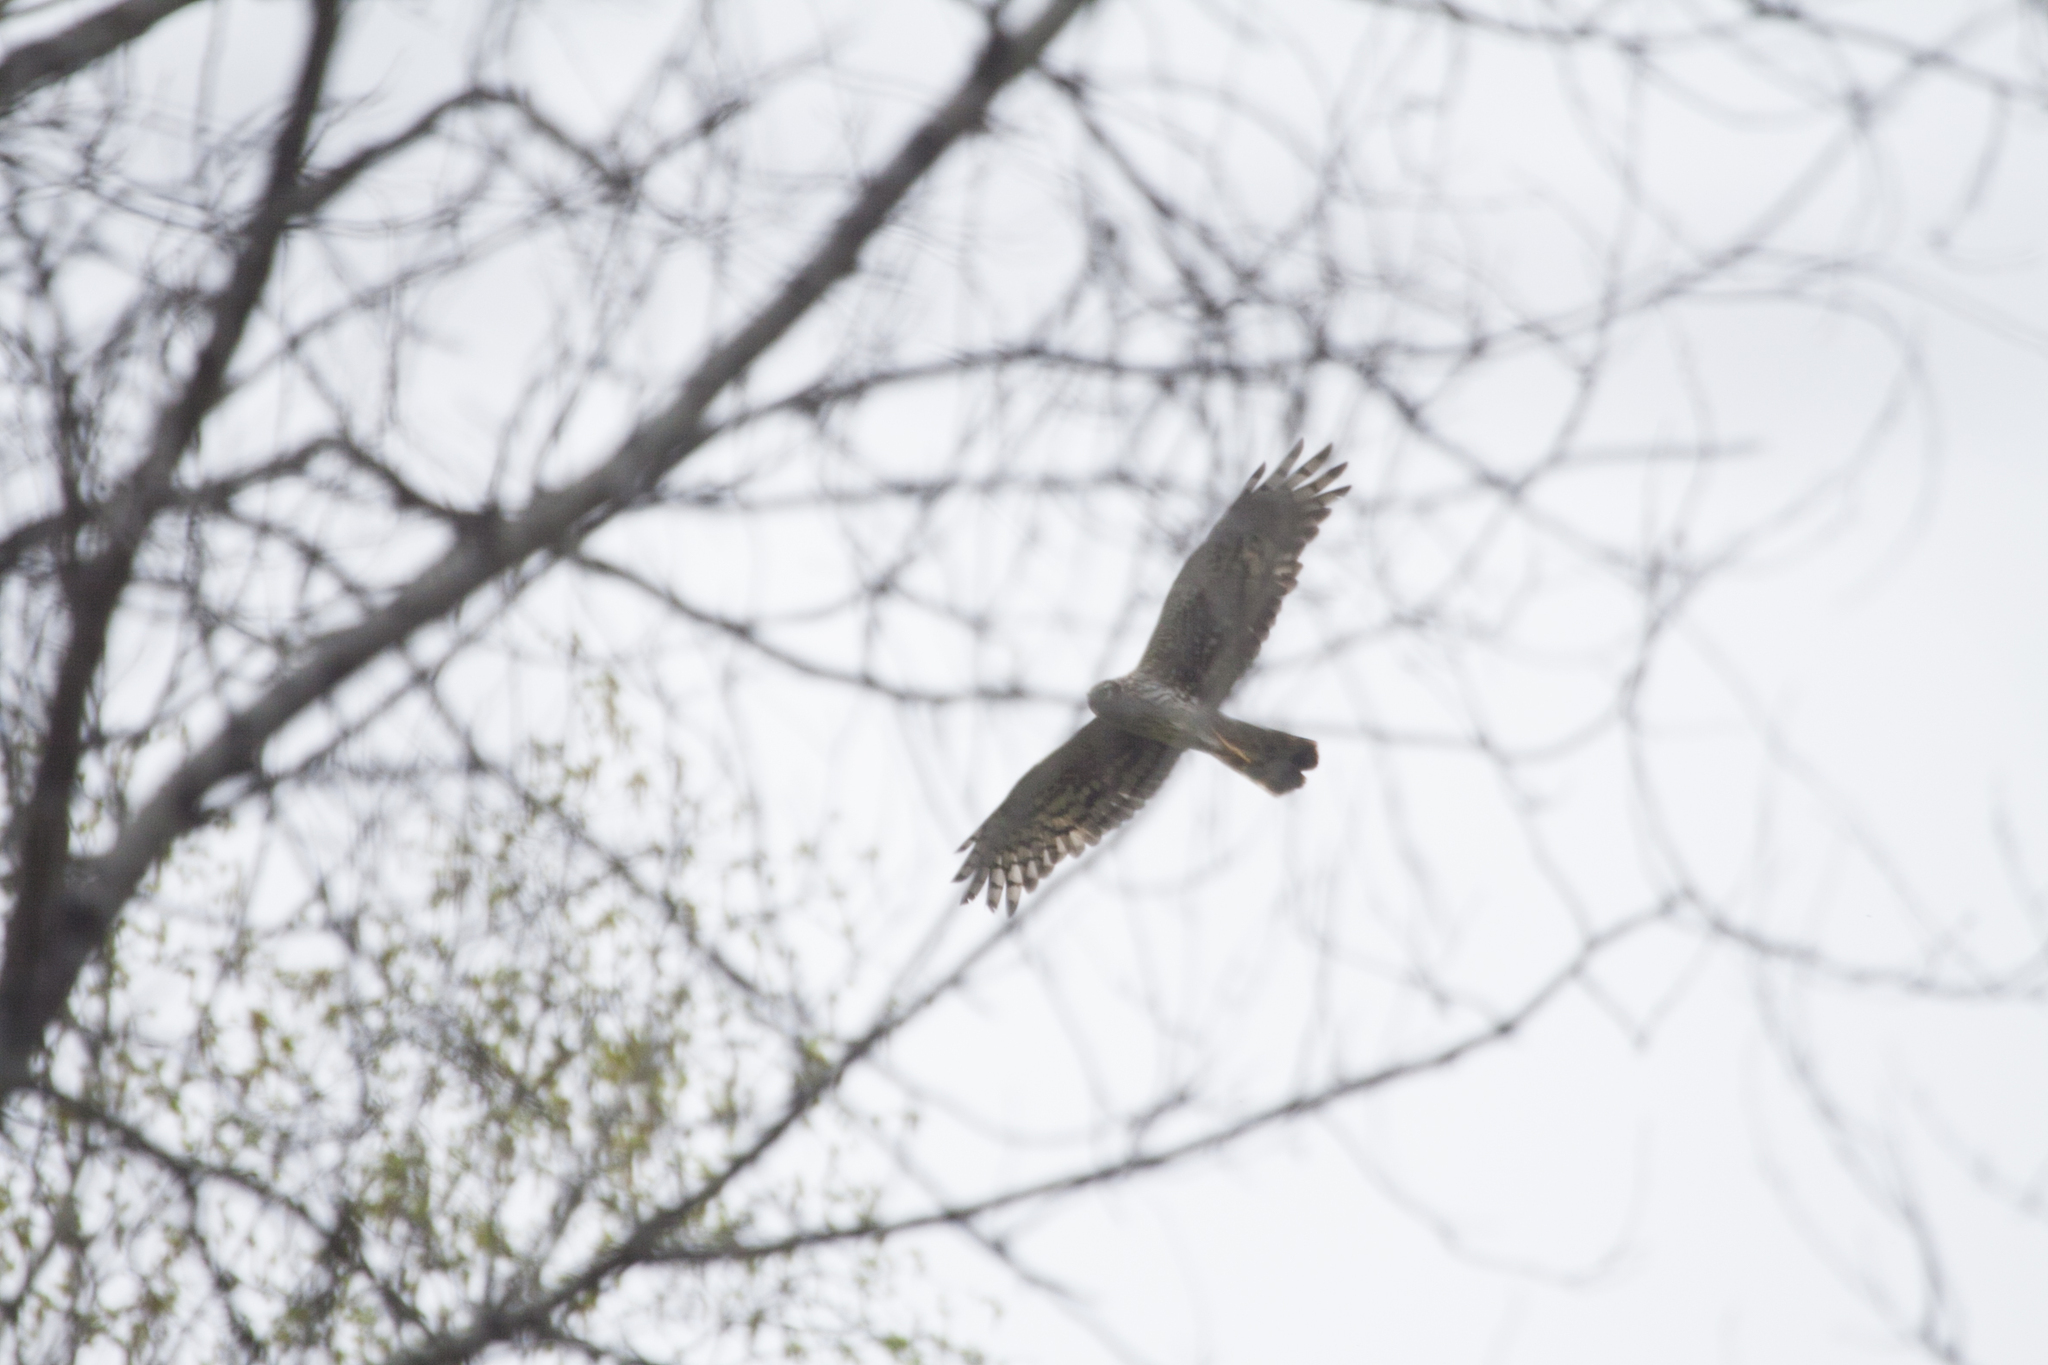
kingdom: Animalia
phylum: Chordata
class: Aves
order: Accipitriformes
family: Accipitridae
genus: Circus
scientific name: Circus cyaneus
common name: Hen harrier
